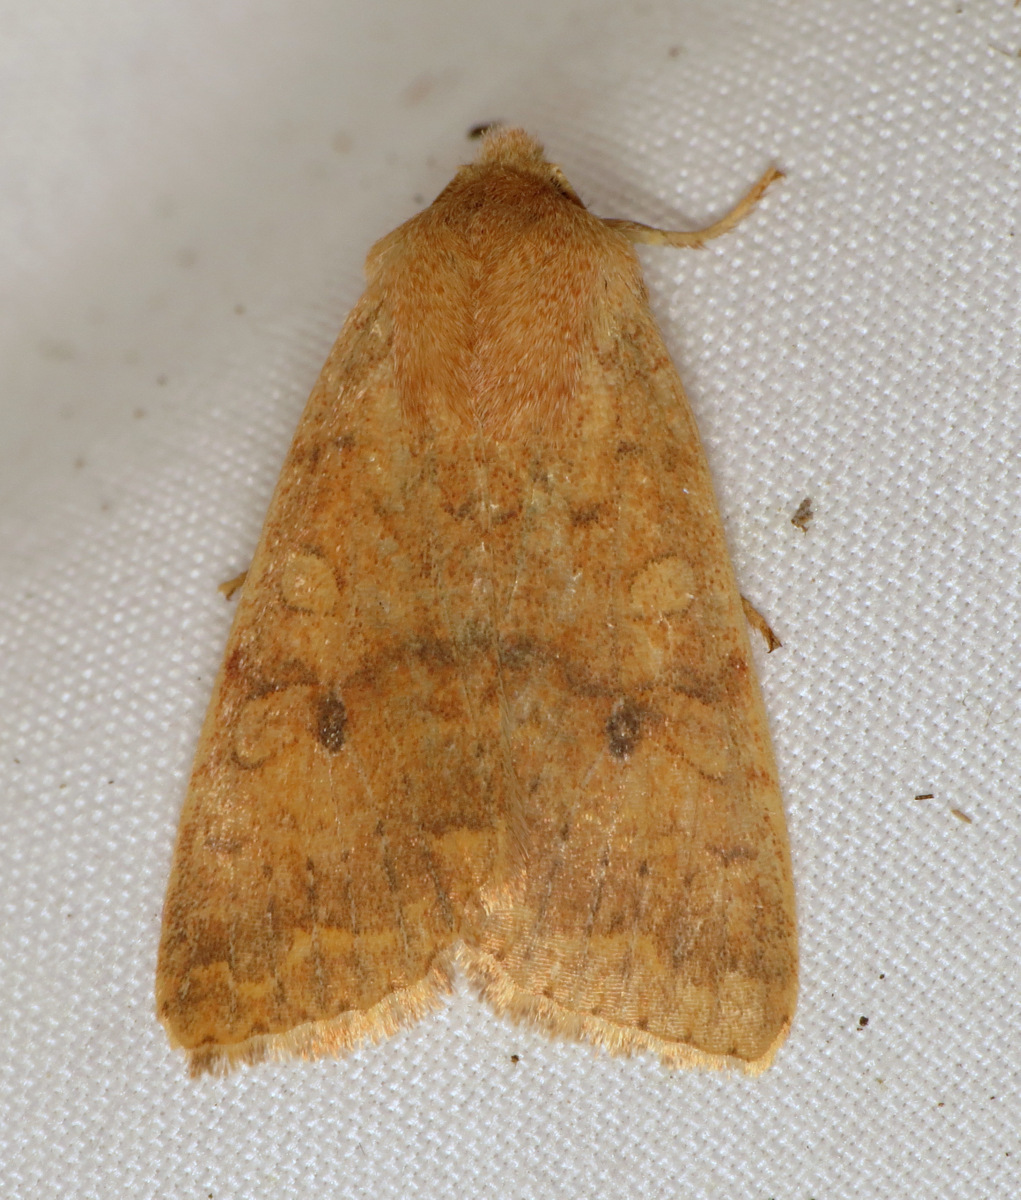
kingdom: Animalia
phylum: Arthropoda
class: Insecta
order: Lepidoptera
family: Noctuidae
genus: Agrochola
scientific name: Agrochola bicolorago
